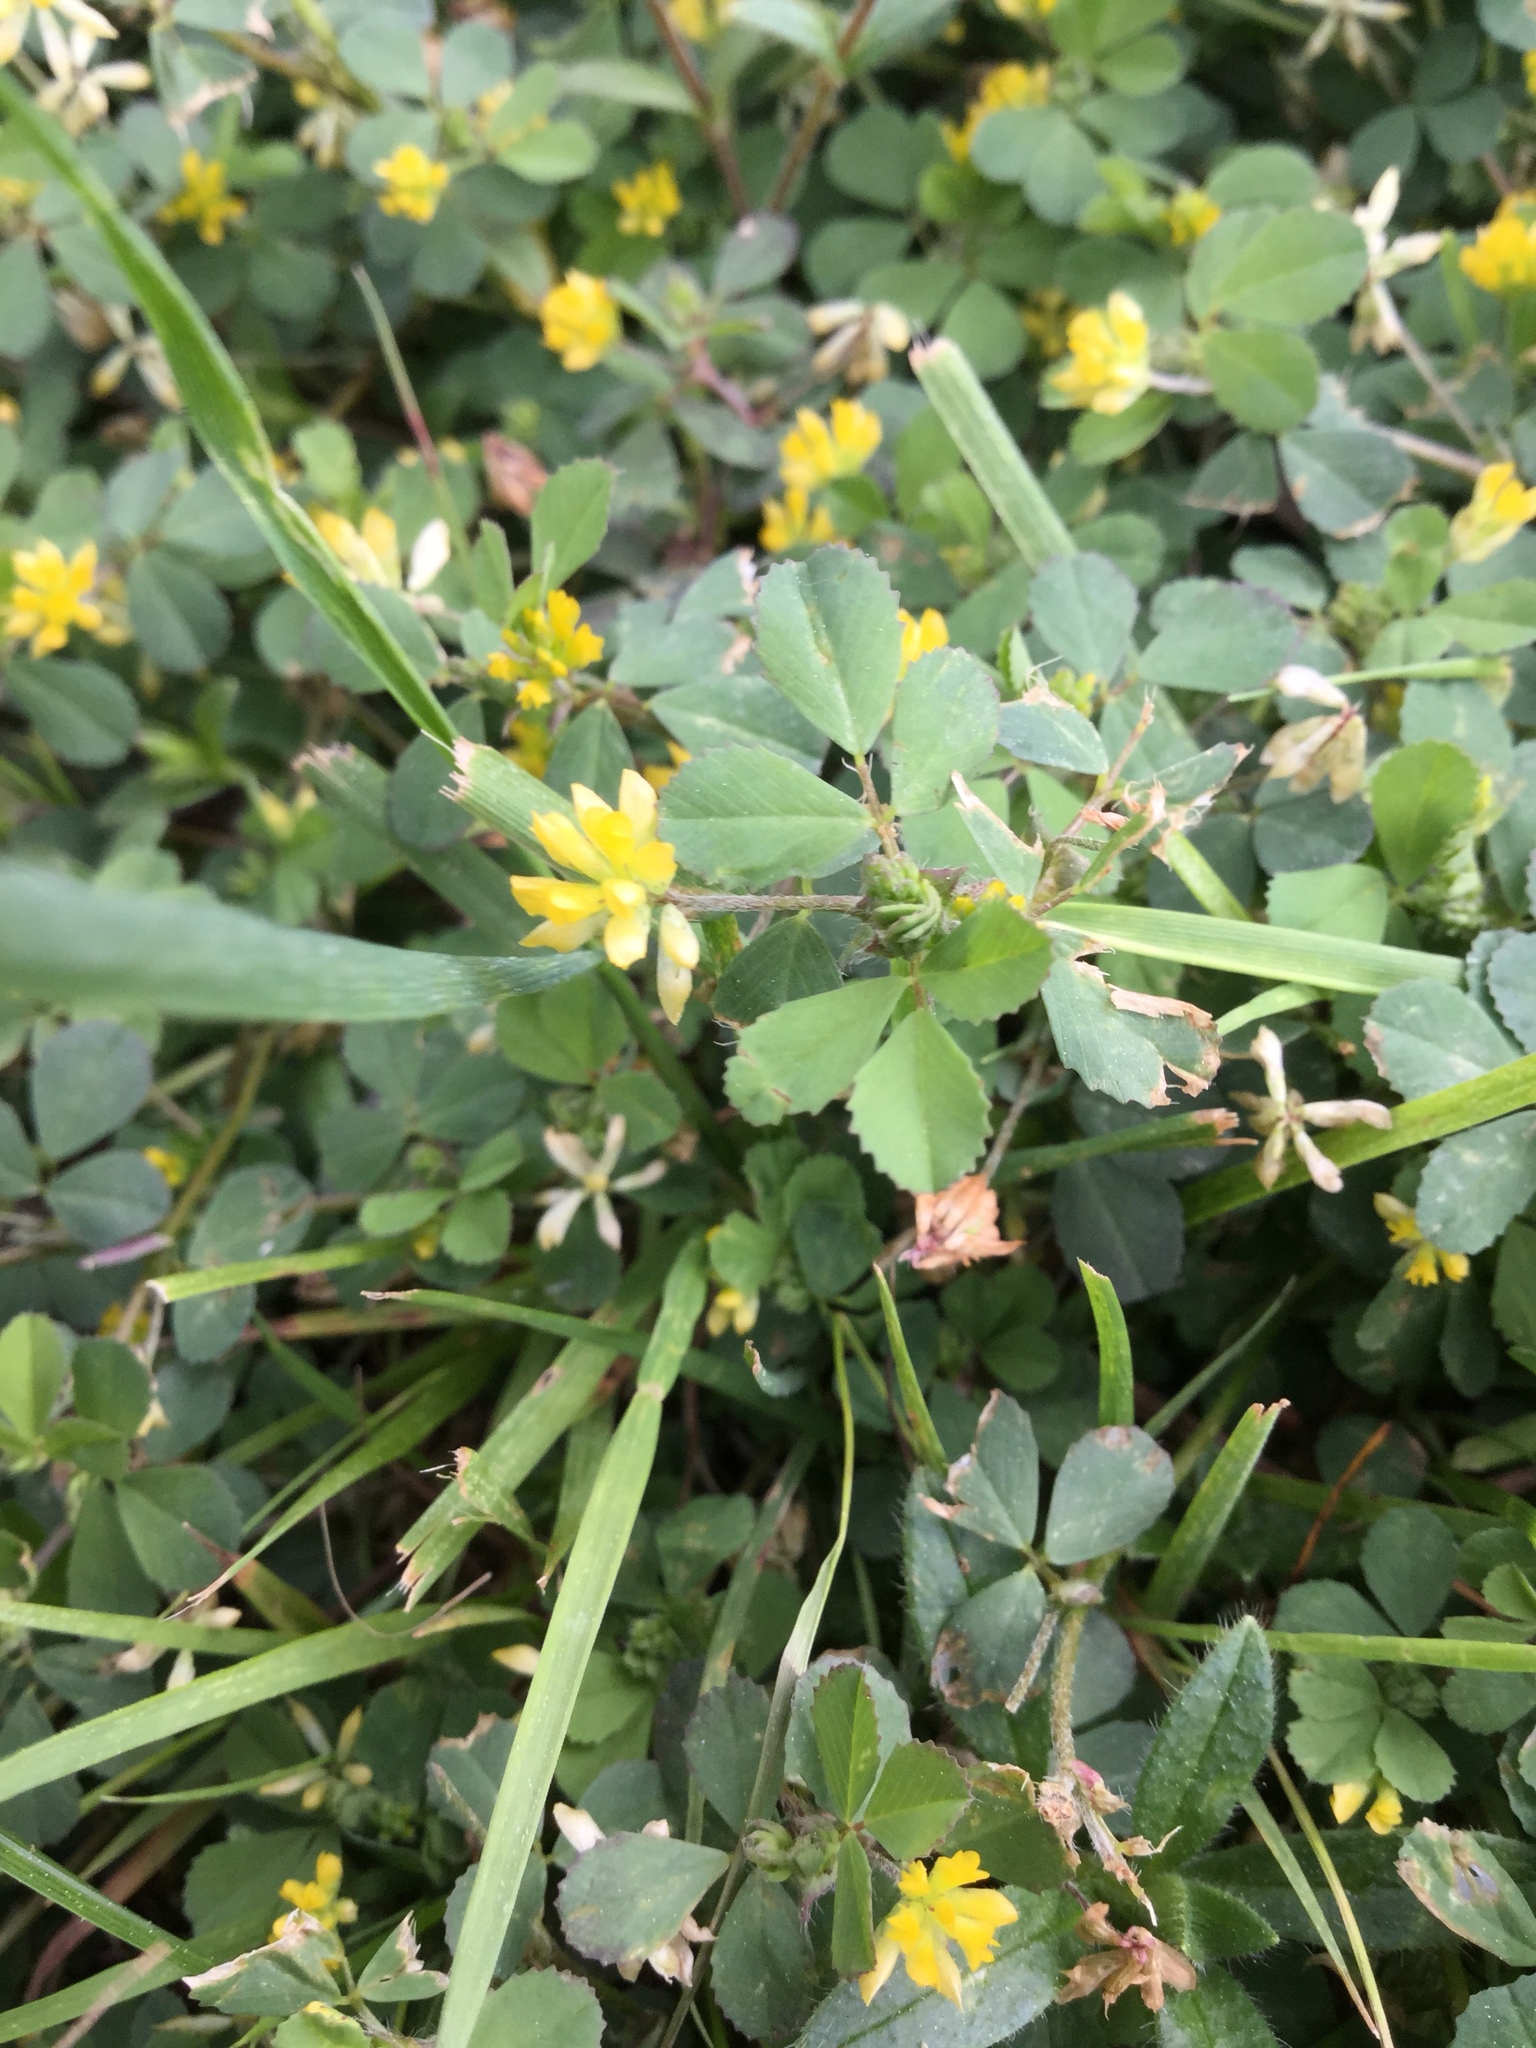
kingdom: Plantae
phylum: Tracheophyta
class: Magnoliopsida
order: Fabales
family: Fabaceae
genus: Trifolium
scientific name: Trifolium dubium
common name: Suckling clover
